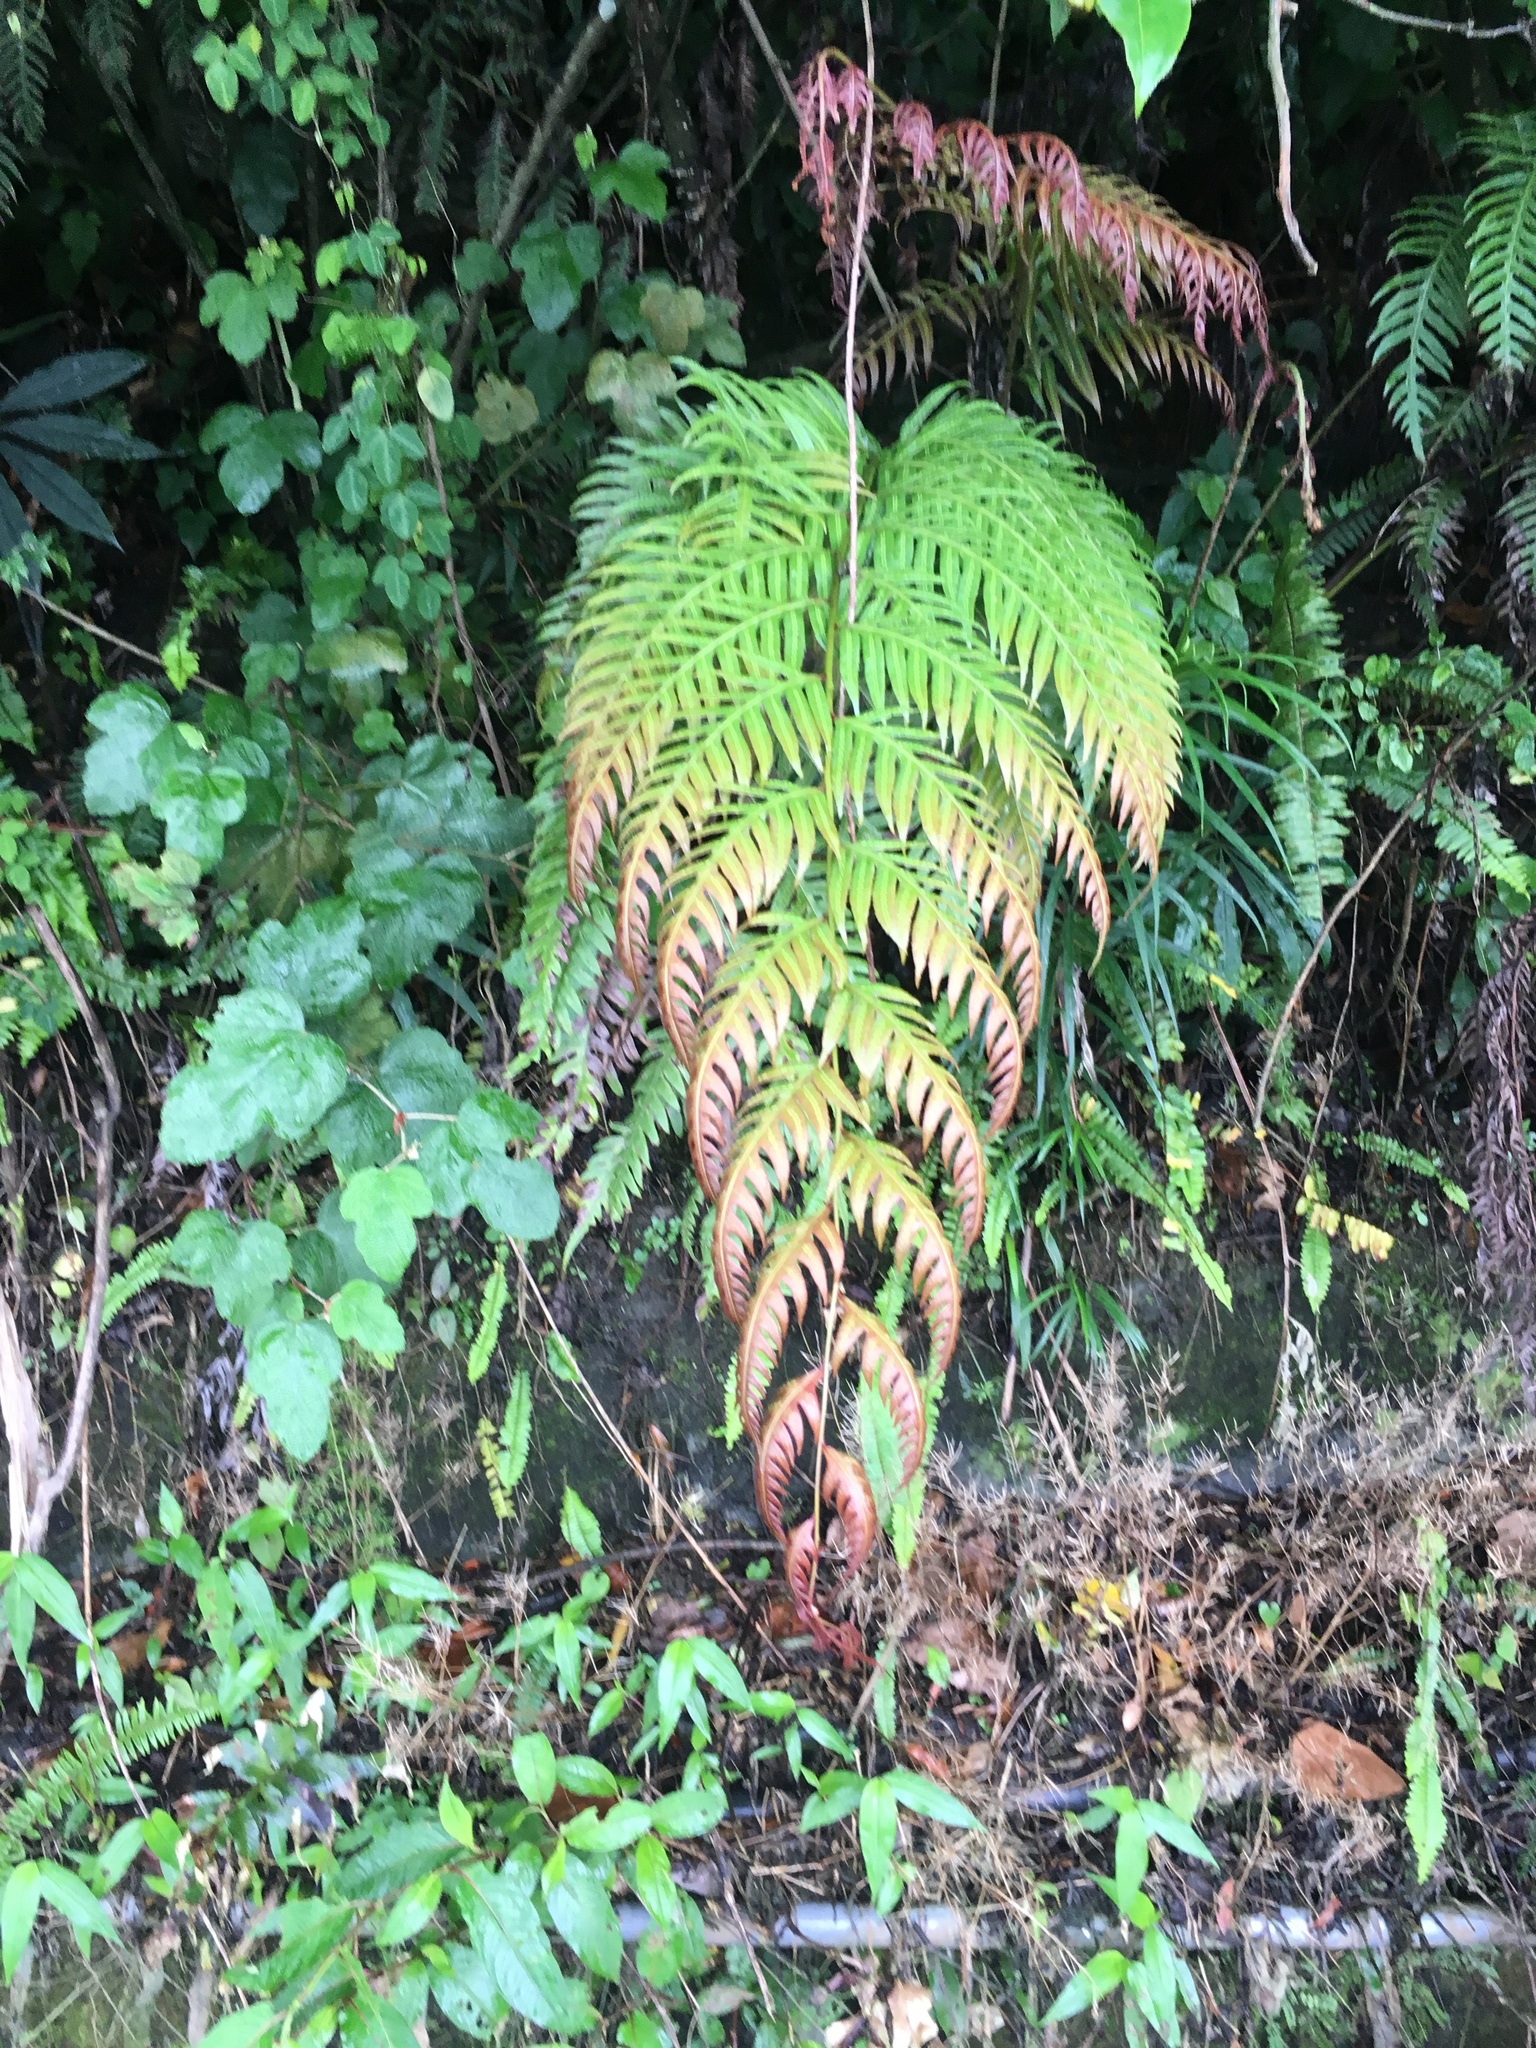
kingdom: Plantae
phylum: Tracheophyta
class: Polypodiopsida
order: Polypodiales
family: Blechnaceae
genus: Woodwardia
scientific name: Woodwardia unigemmata
